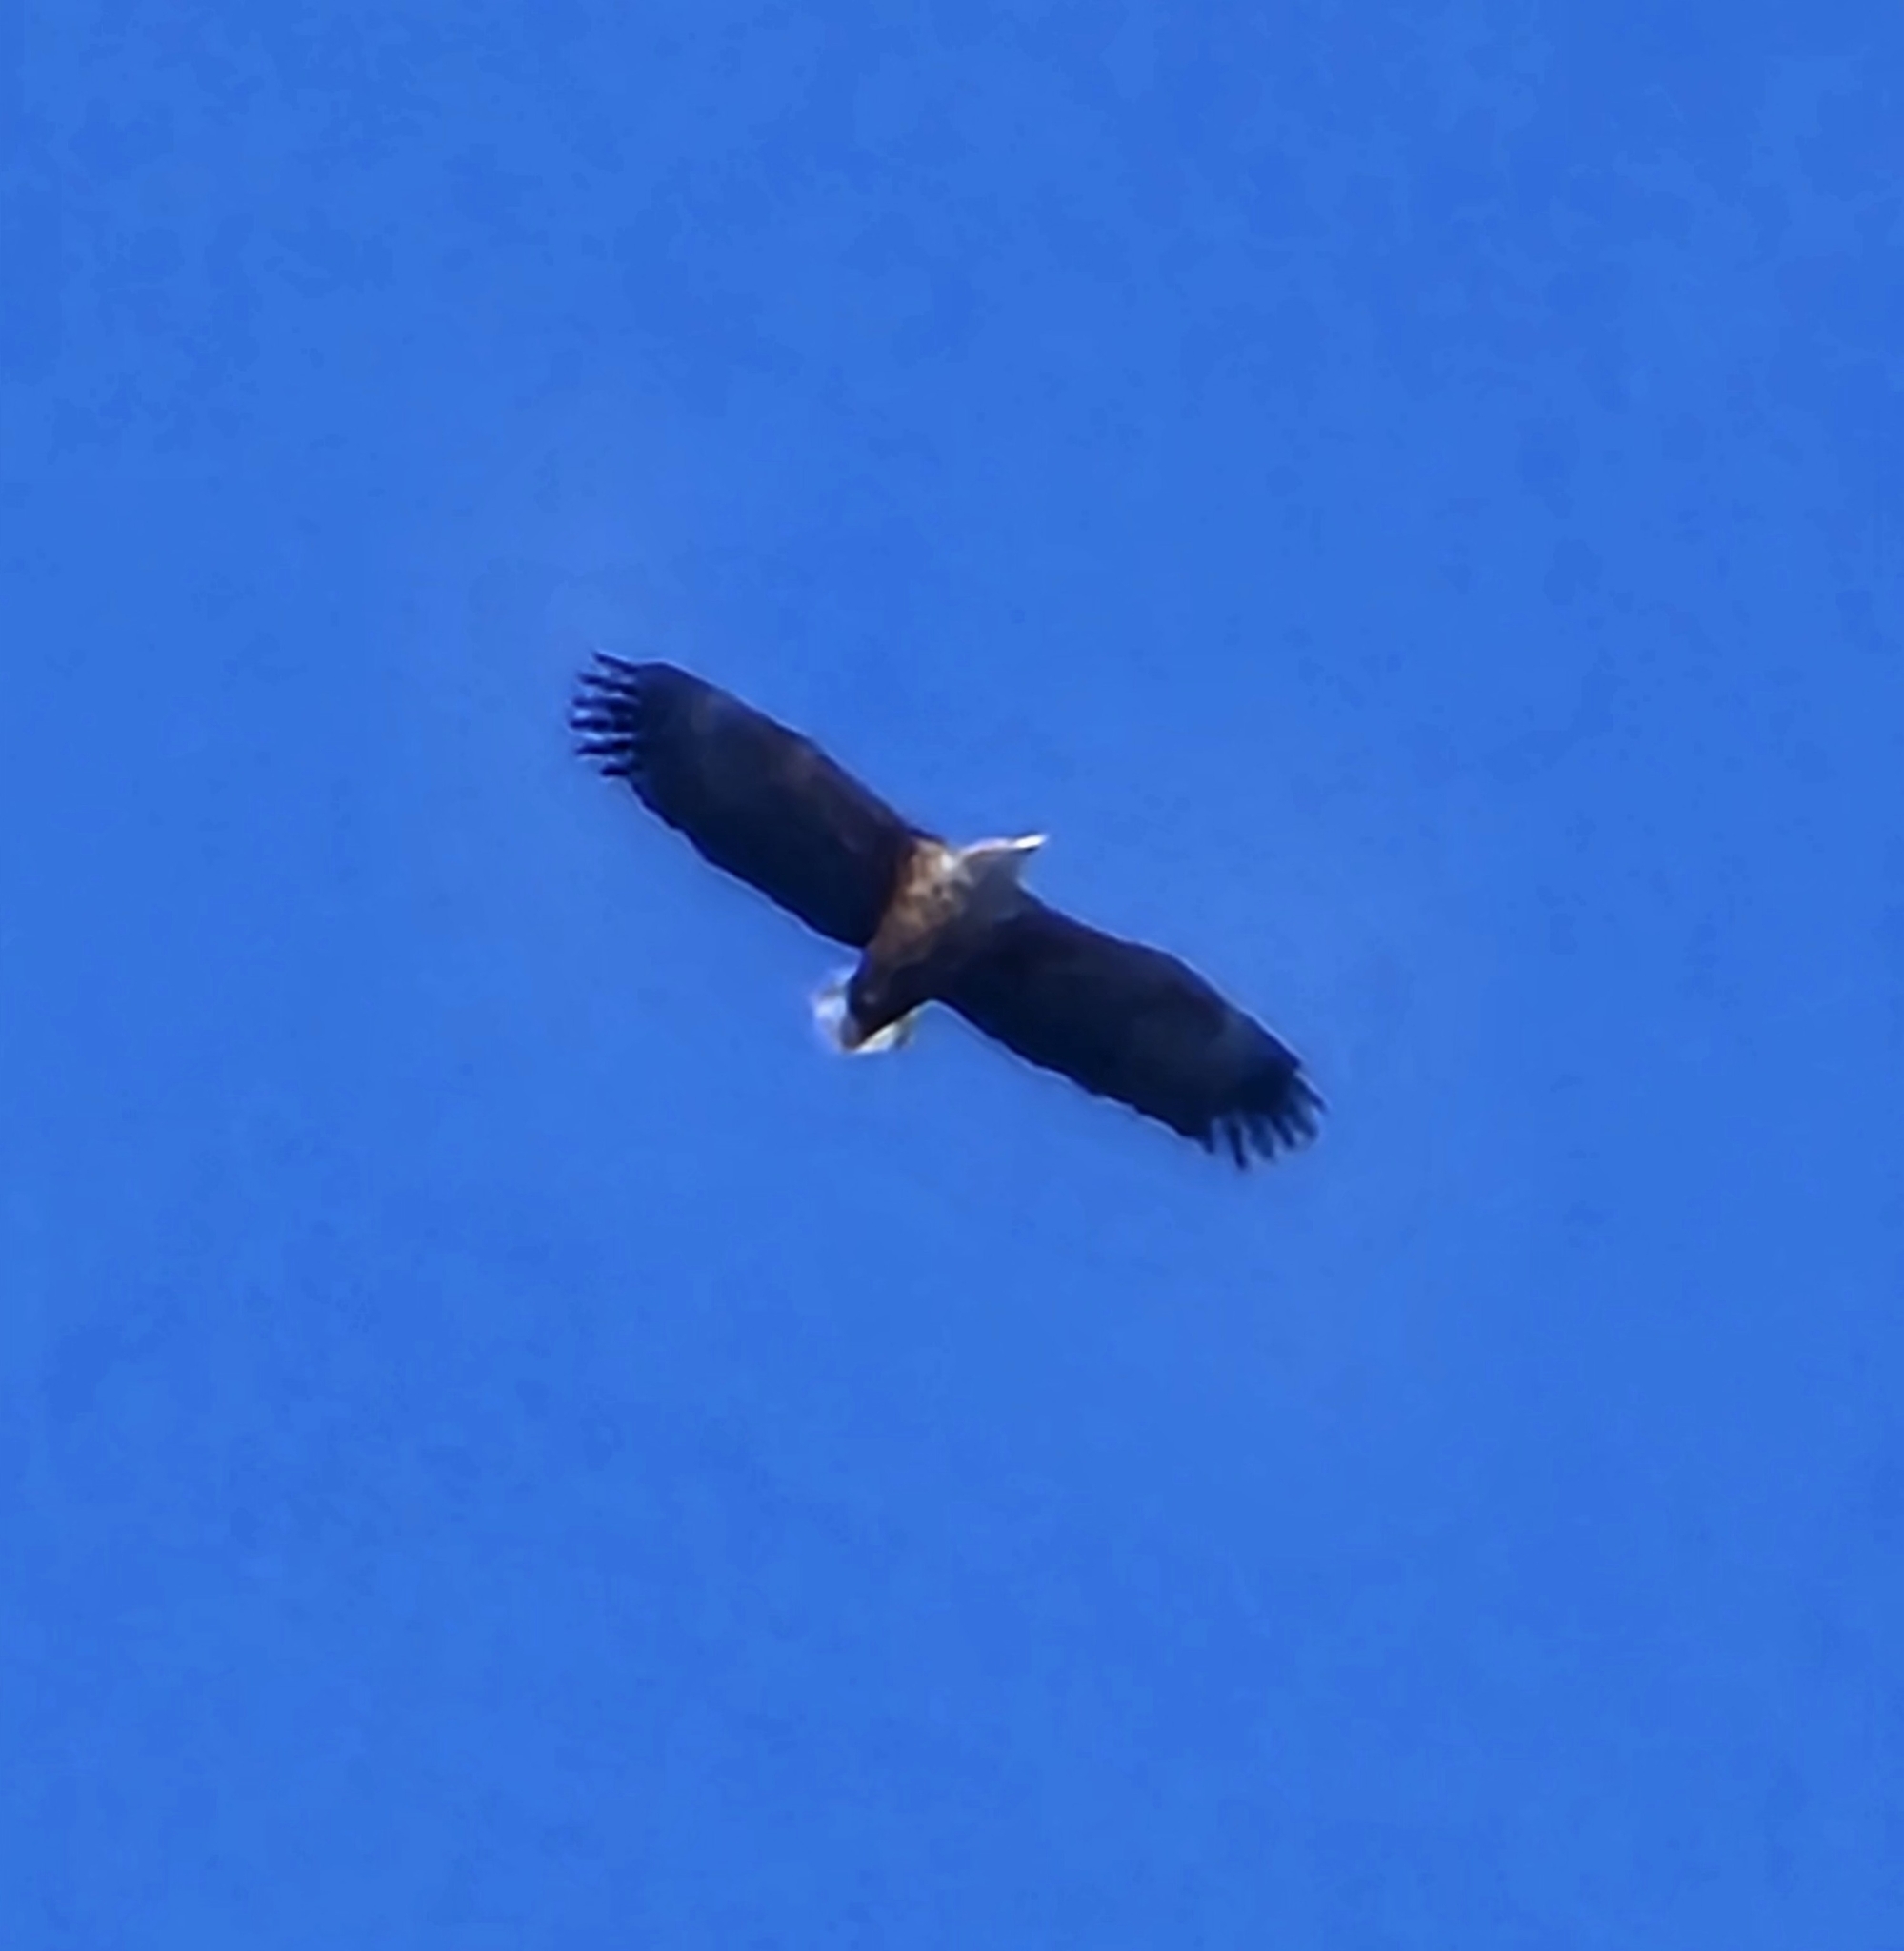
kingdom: Animalia
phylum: Chordata
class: Aves
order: Accipitriformes
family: Accipitridae
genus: Haliaeetus
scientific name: Haliaeetus albicilla
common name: White-tailed eagle
